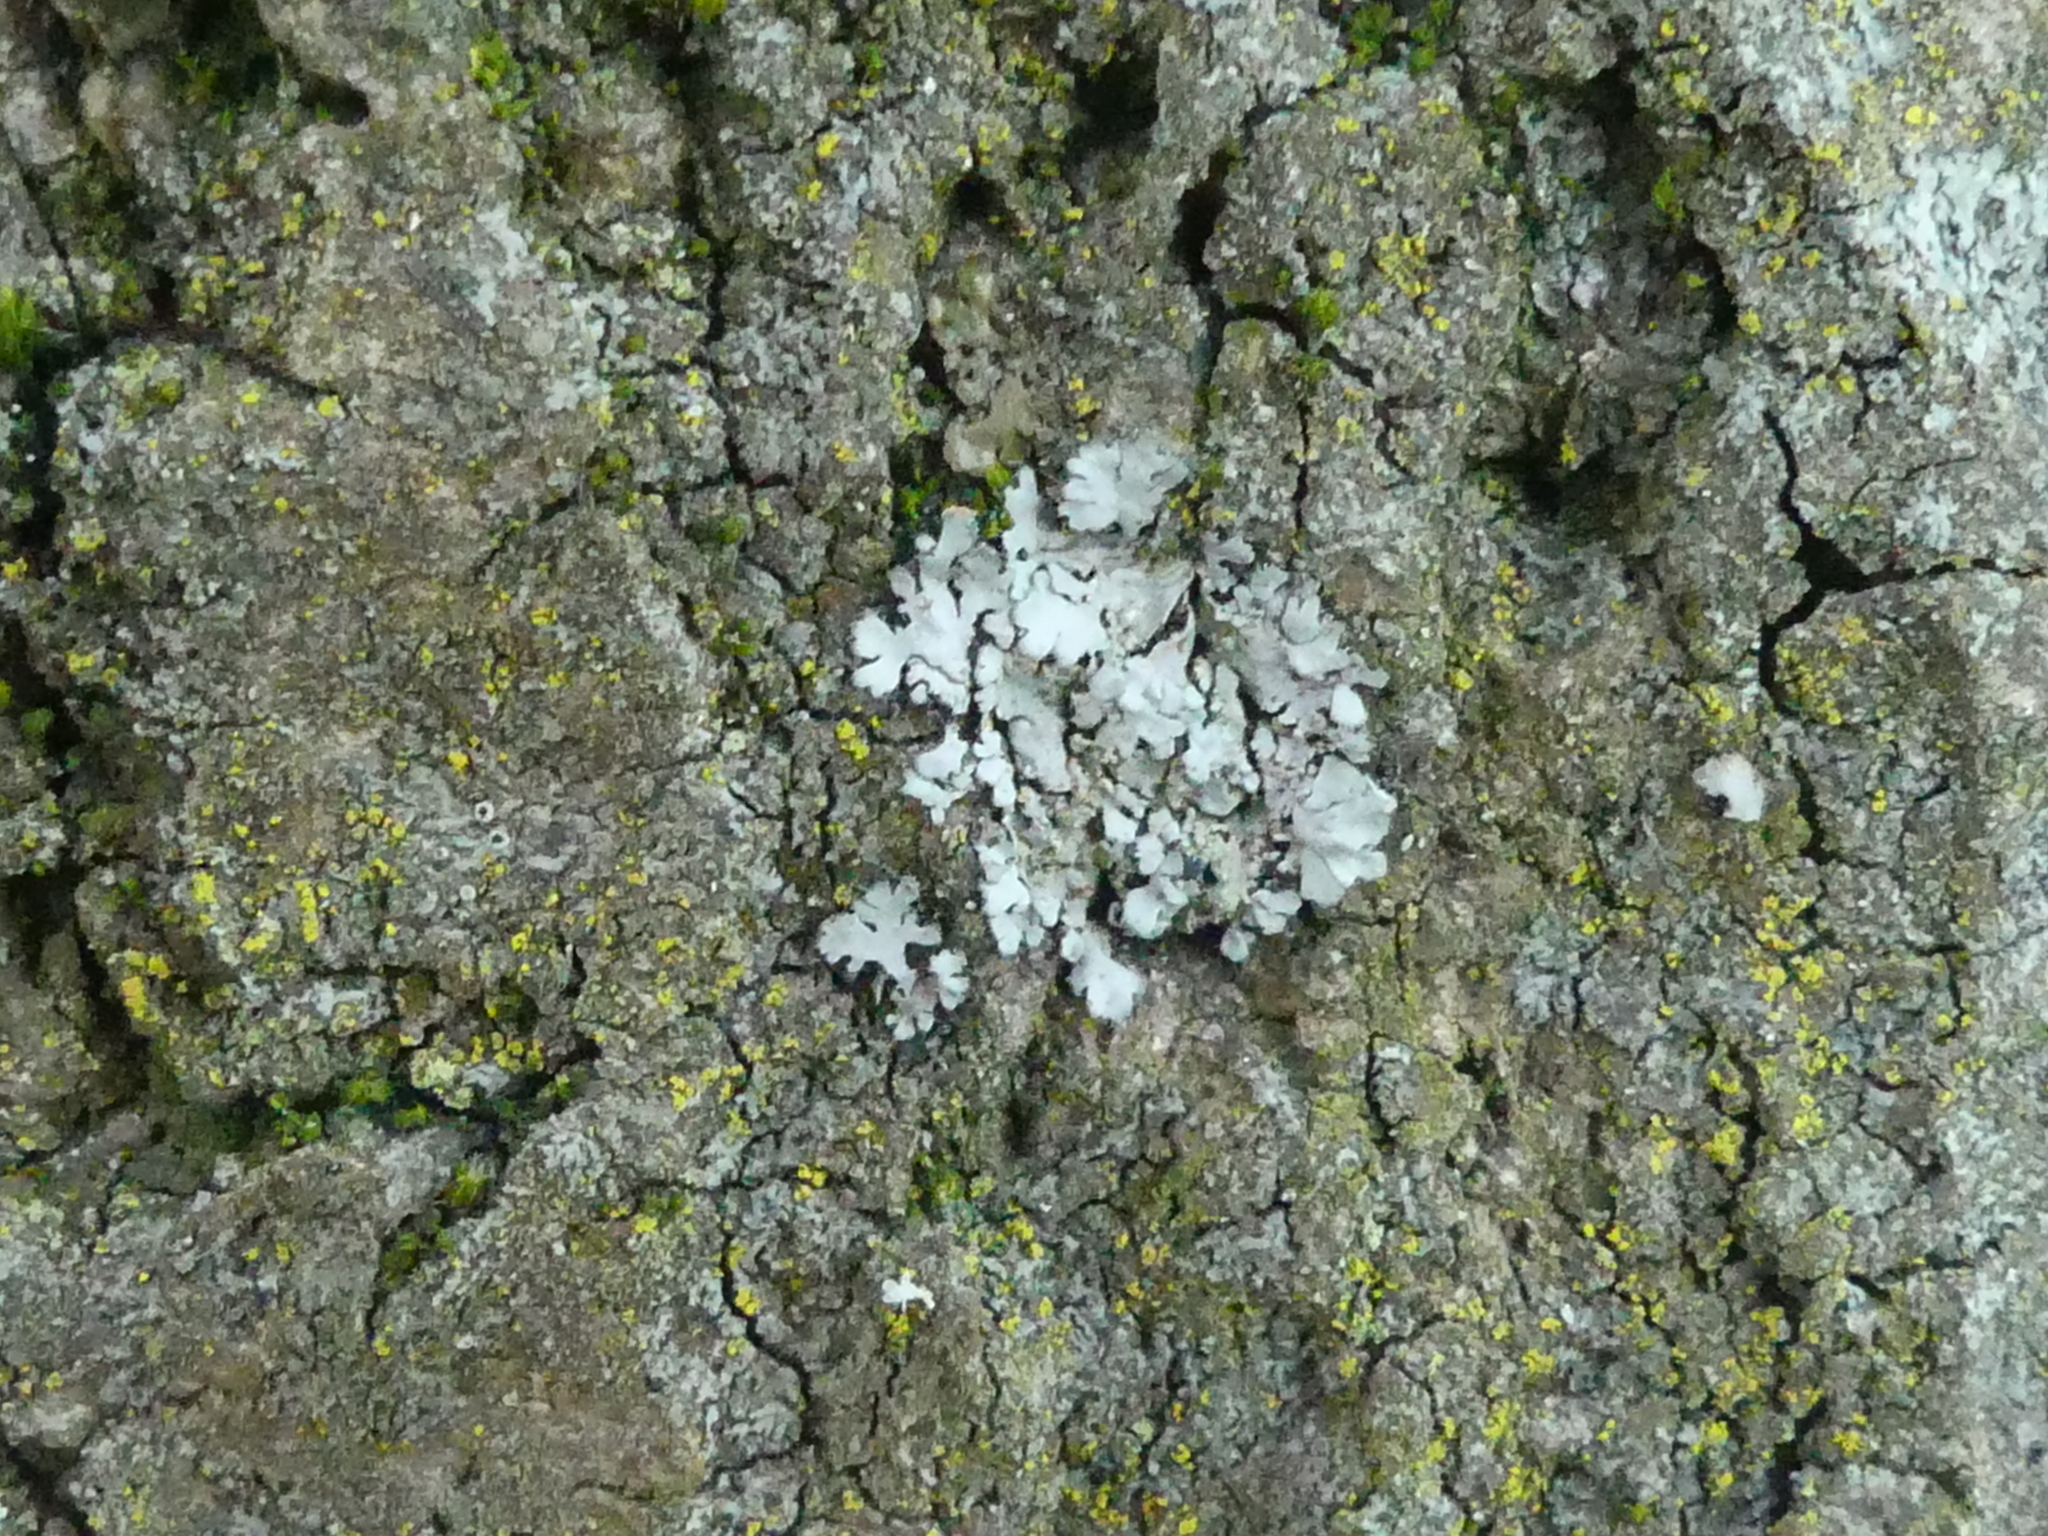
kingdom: Fungi
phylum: Ascomycota
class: Lecanoromycetes
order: Caliciales
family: Physciaceae
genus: Phaeophyscia
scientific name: Phaeophyscia orbicularis
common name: Mealy shadow lichen
